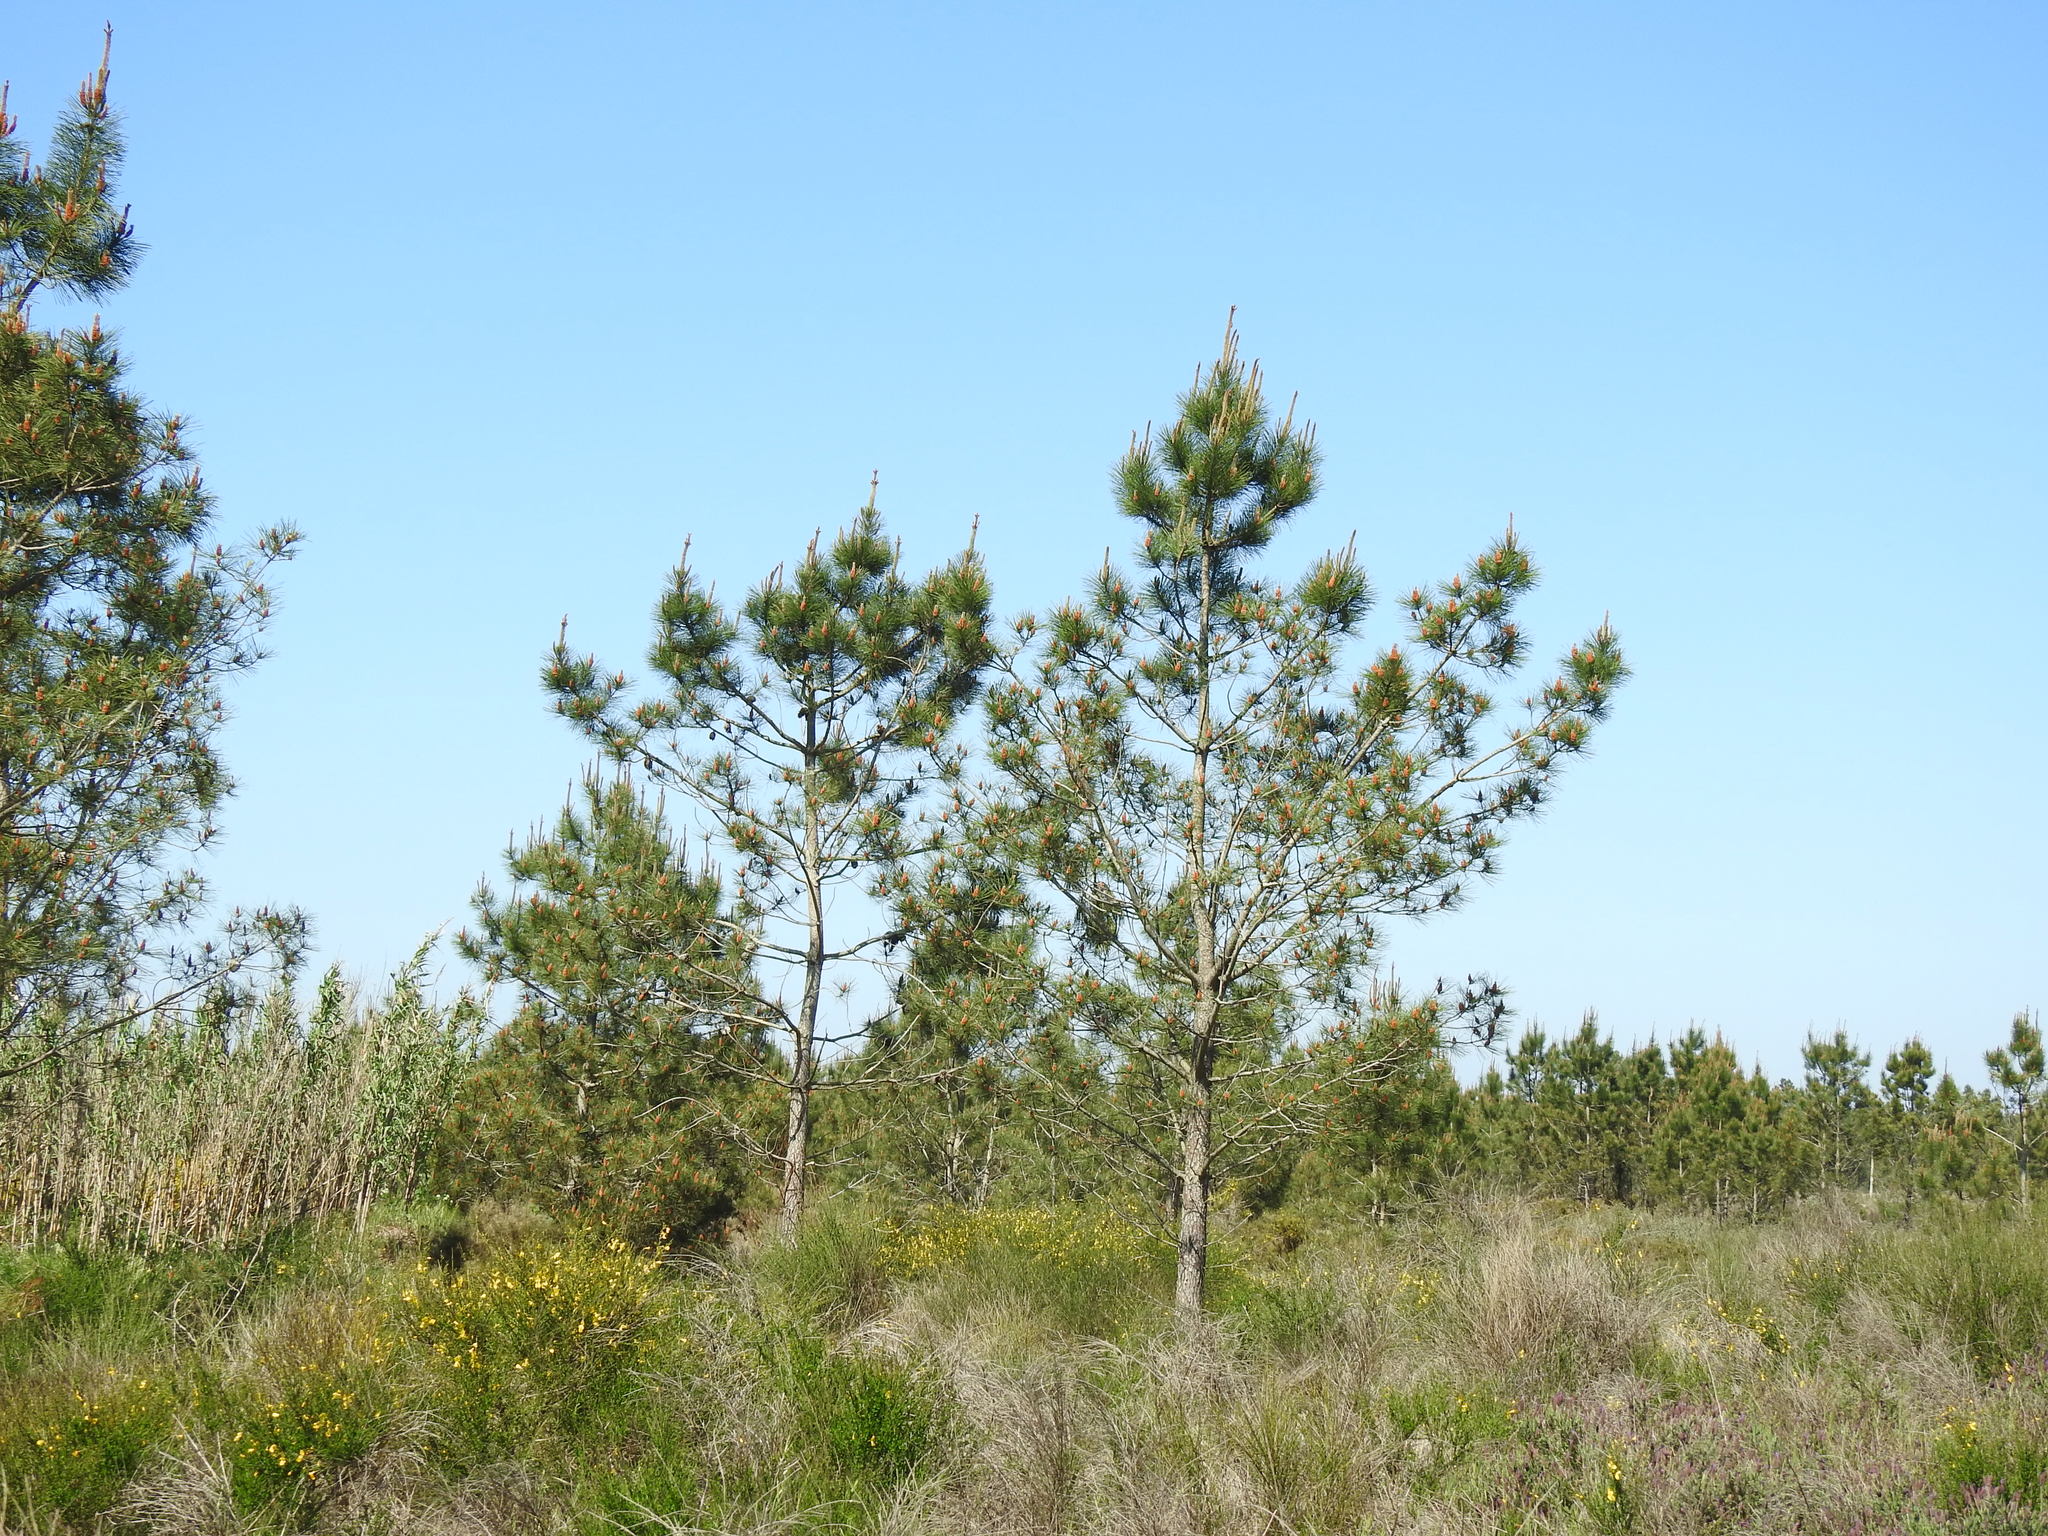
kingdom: Plantae
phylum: Tracheophyta
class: Pinopsida
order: Pinales
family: Pinaceae
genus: Pinus
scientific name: Pinus pinaster
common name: Maritime pine
